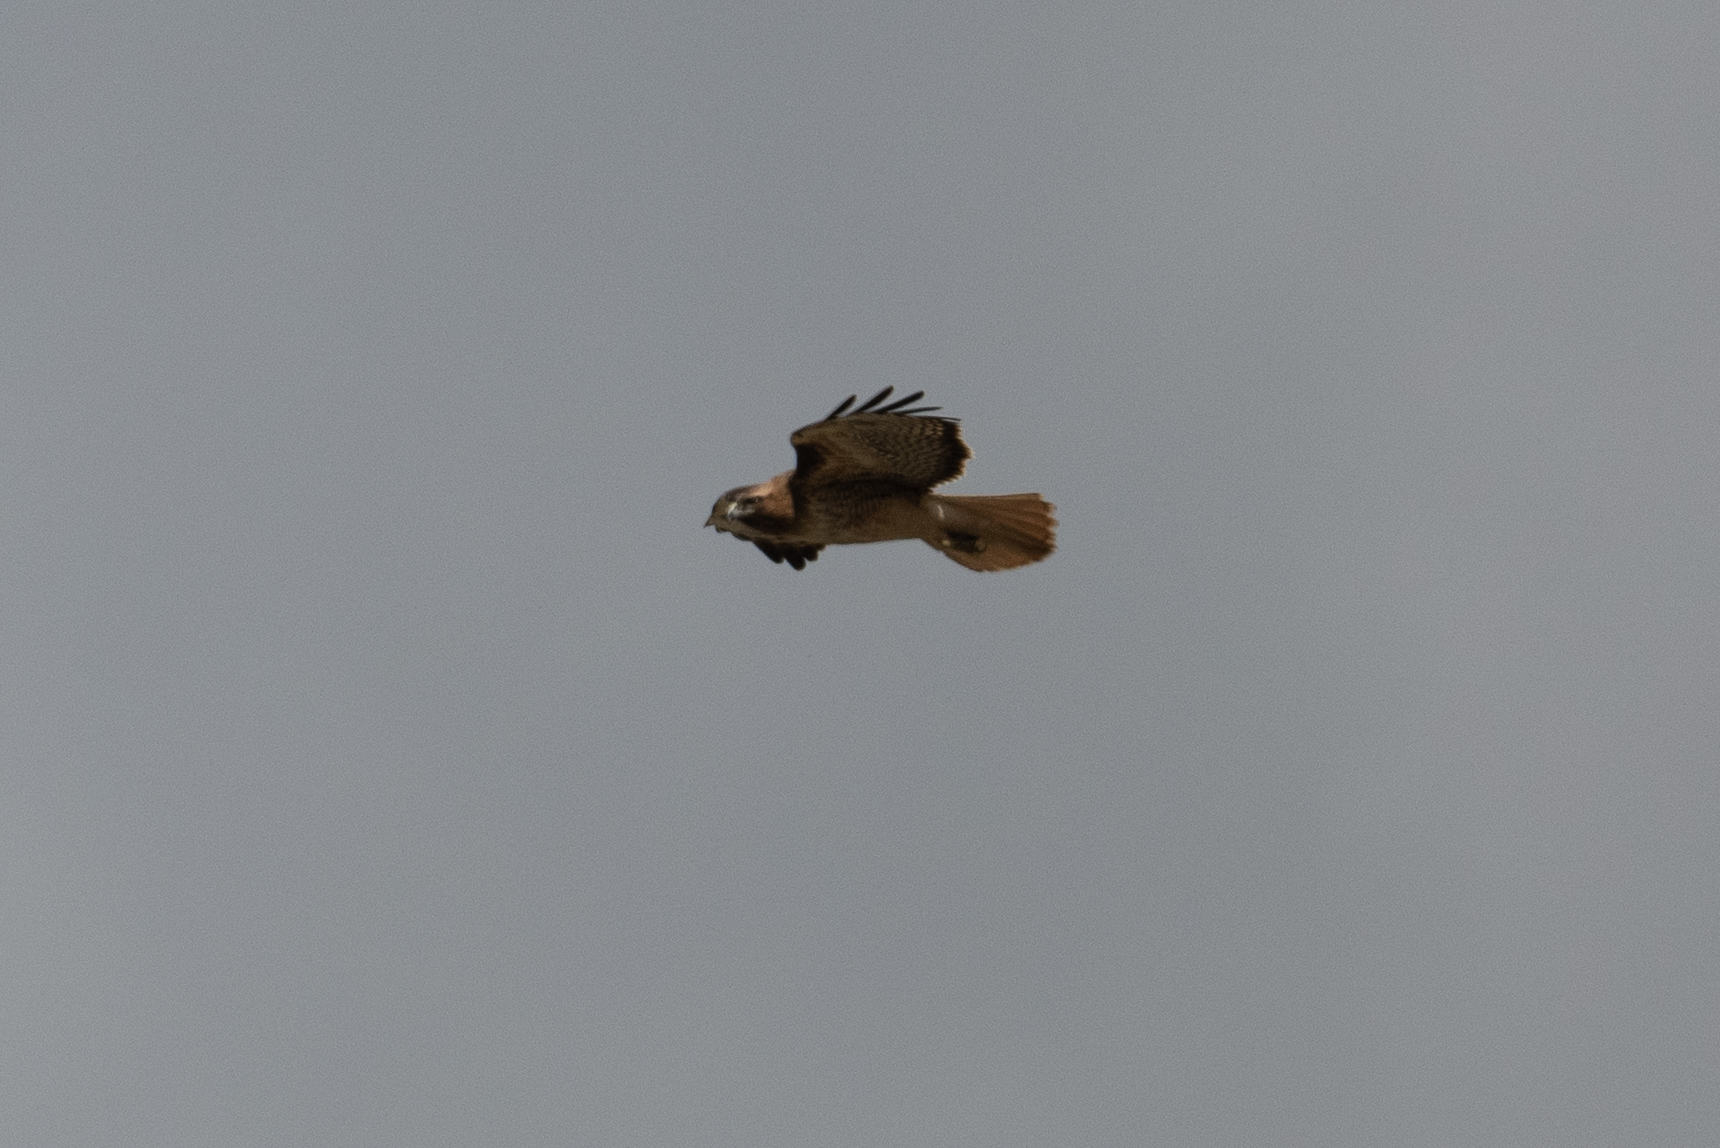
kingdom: Animalia
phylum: Chordata
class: Aves
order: Accipitriformes
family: Accipitridae
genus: Buteo
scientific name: Buteo jamaicensis
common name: Red-tailed hawk
